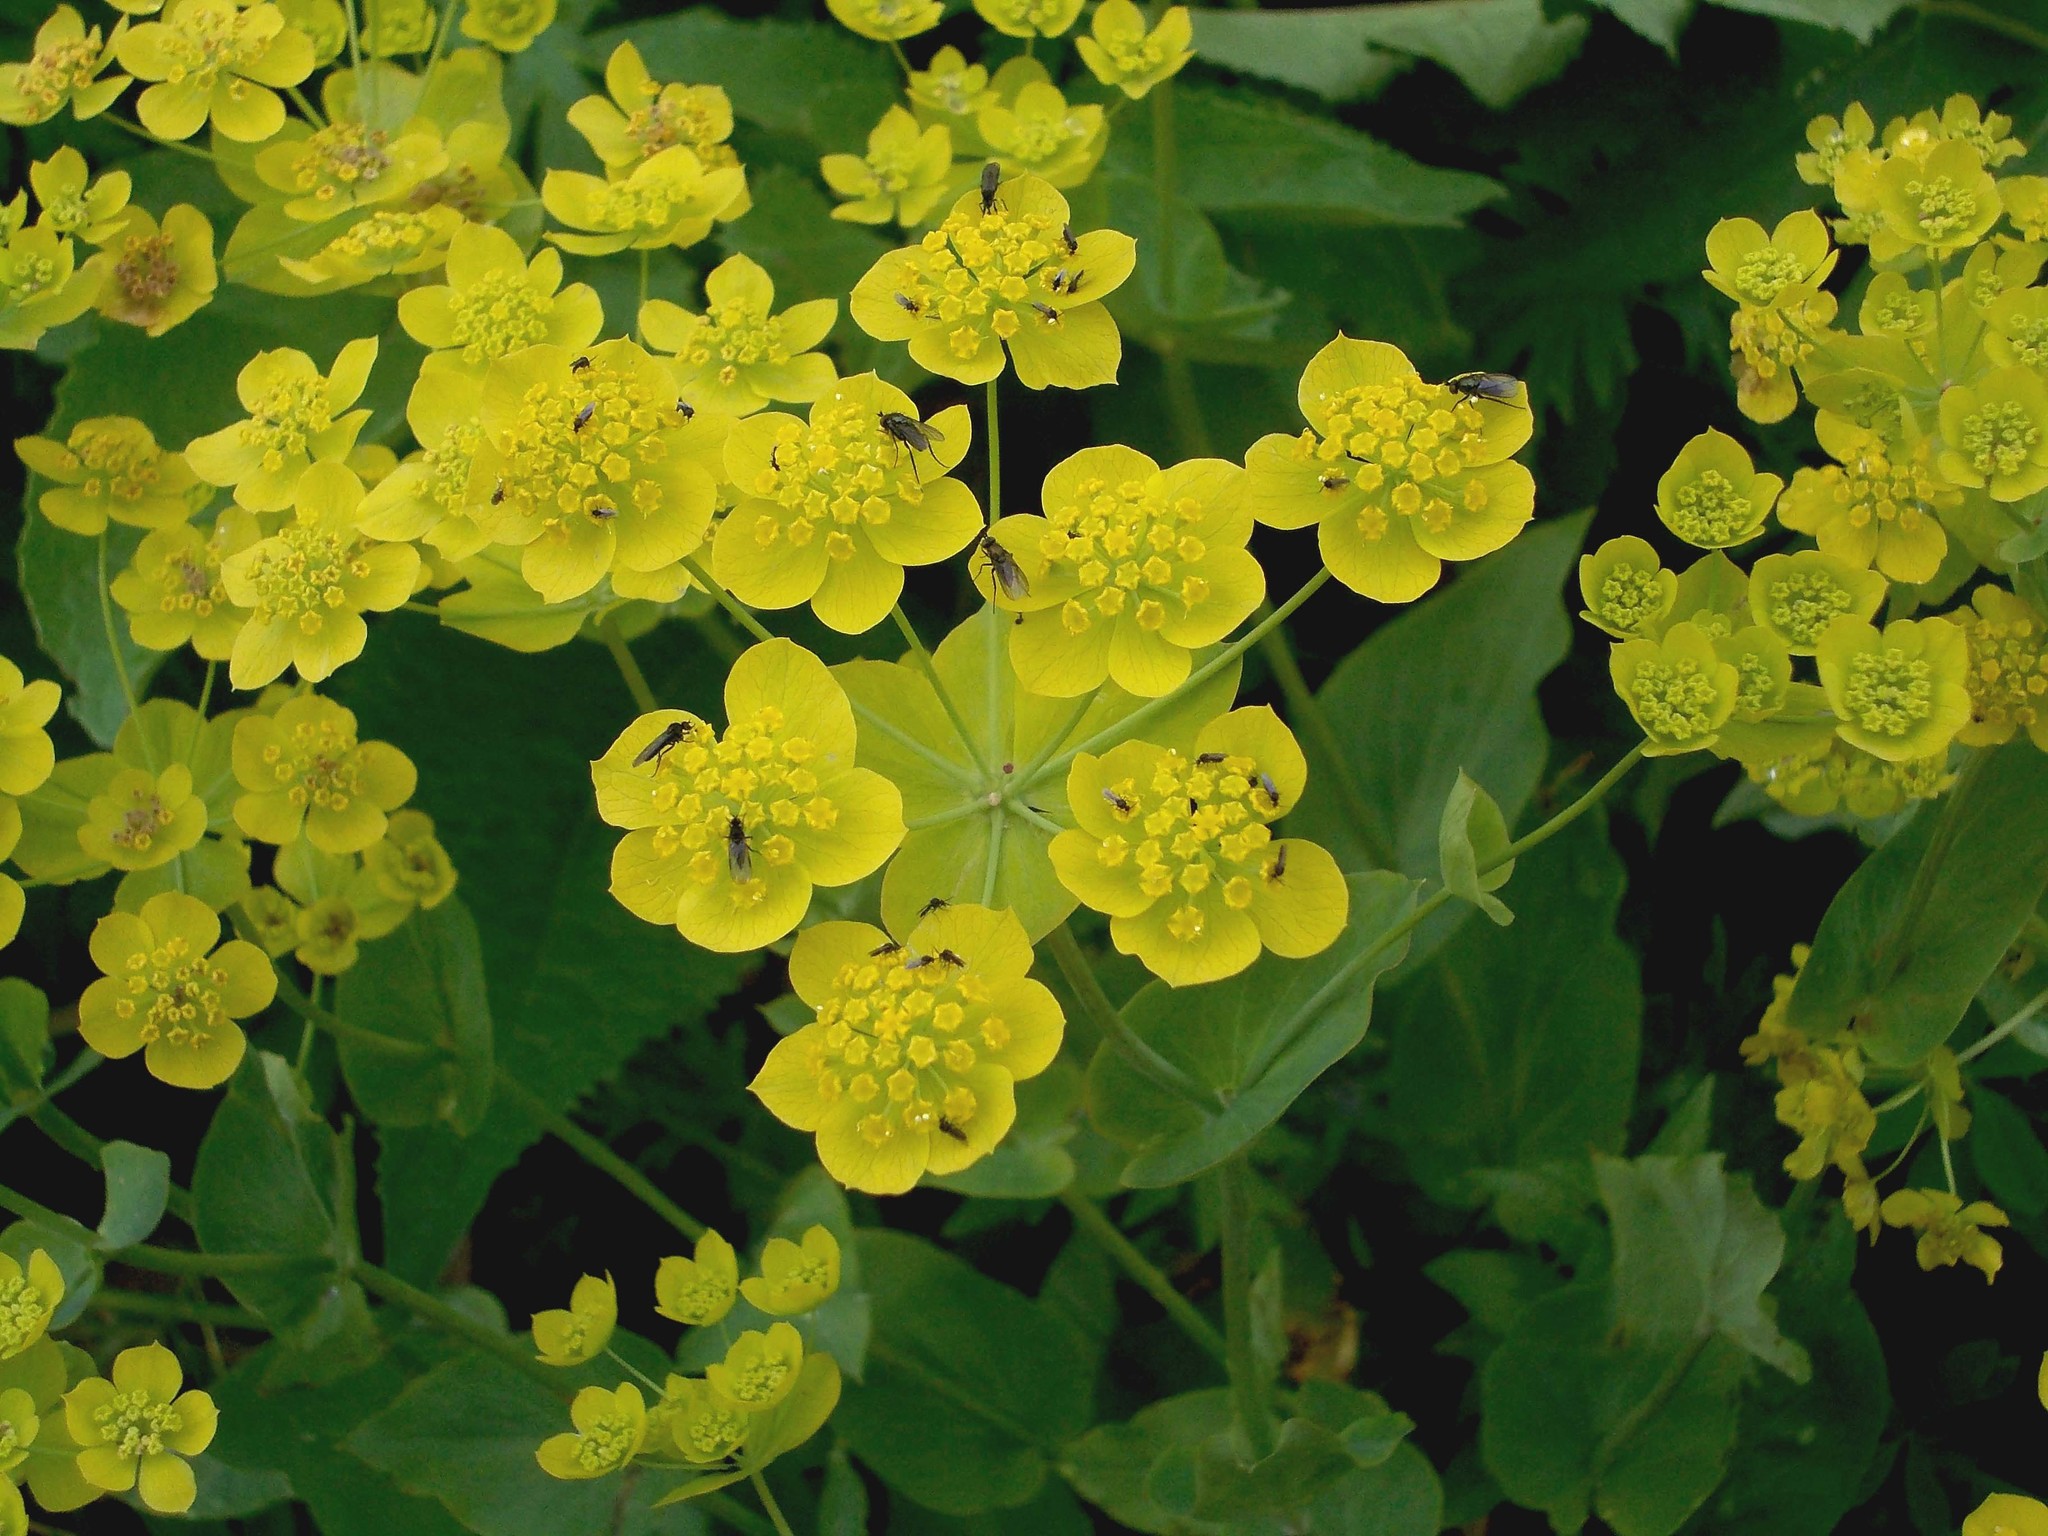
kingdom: Plantae
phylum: Tracheophyta
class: Magnoliopsida
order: Apiales
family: Apiaceae
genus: Bupleurum
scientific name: Bupleurum aureum
